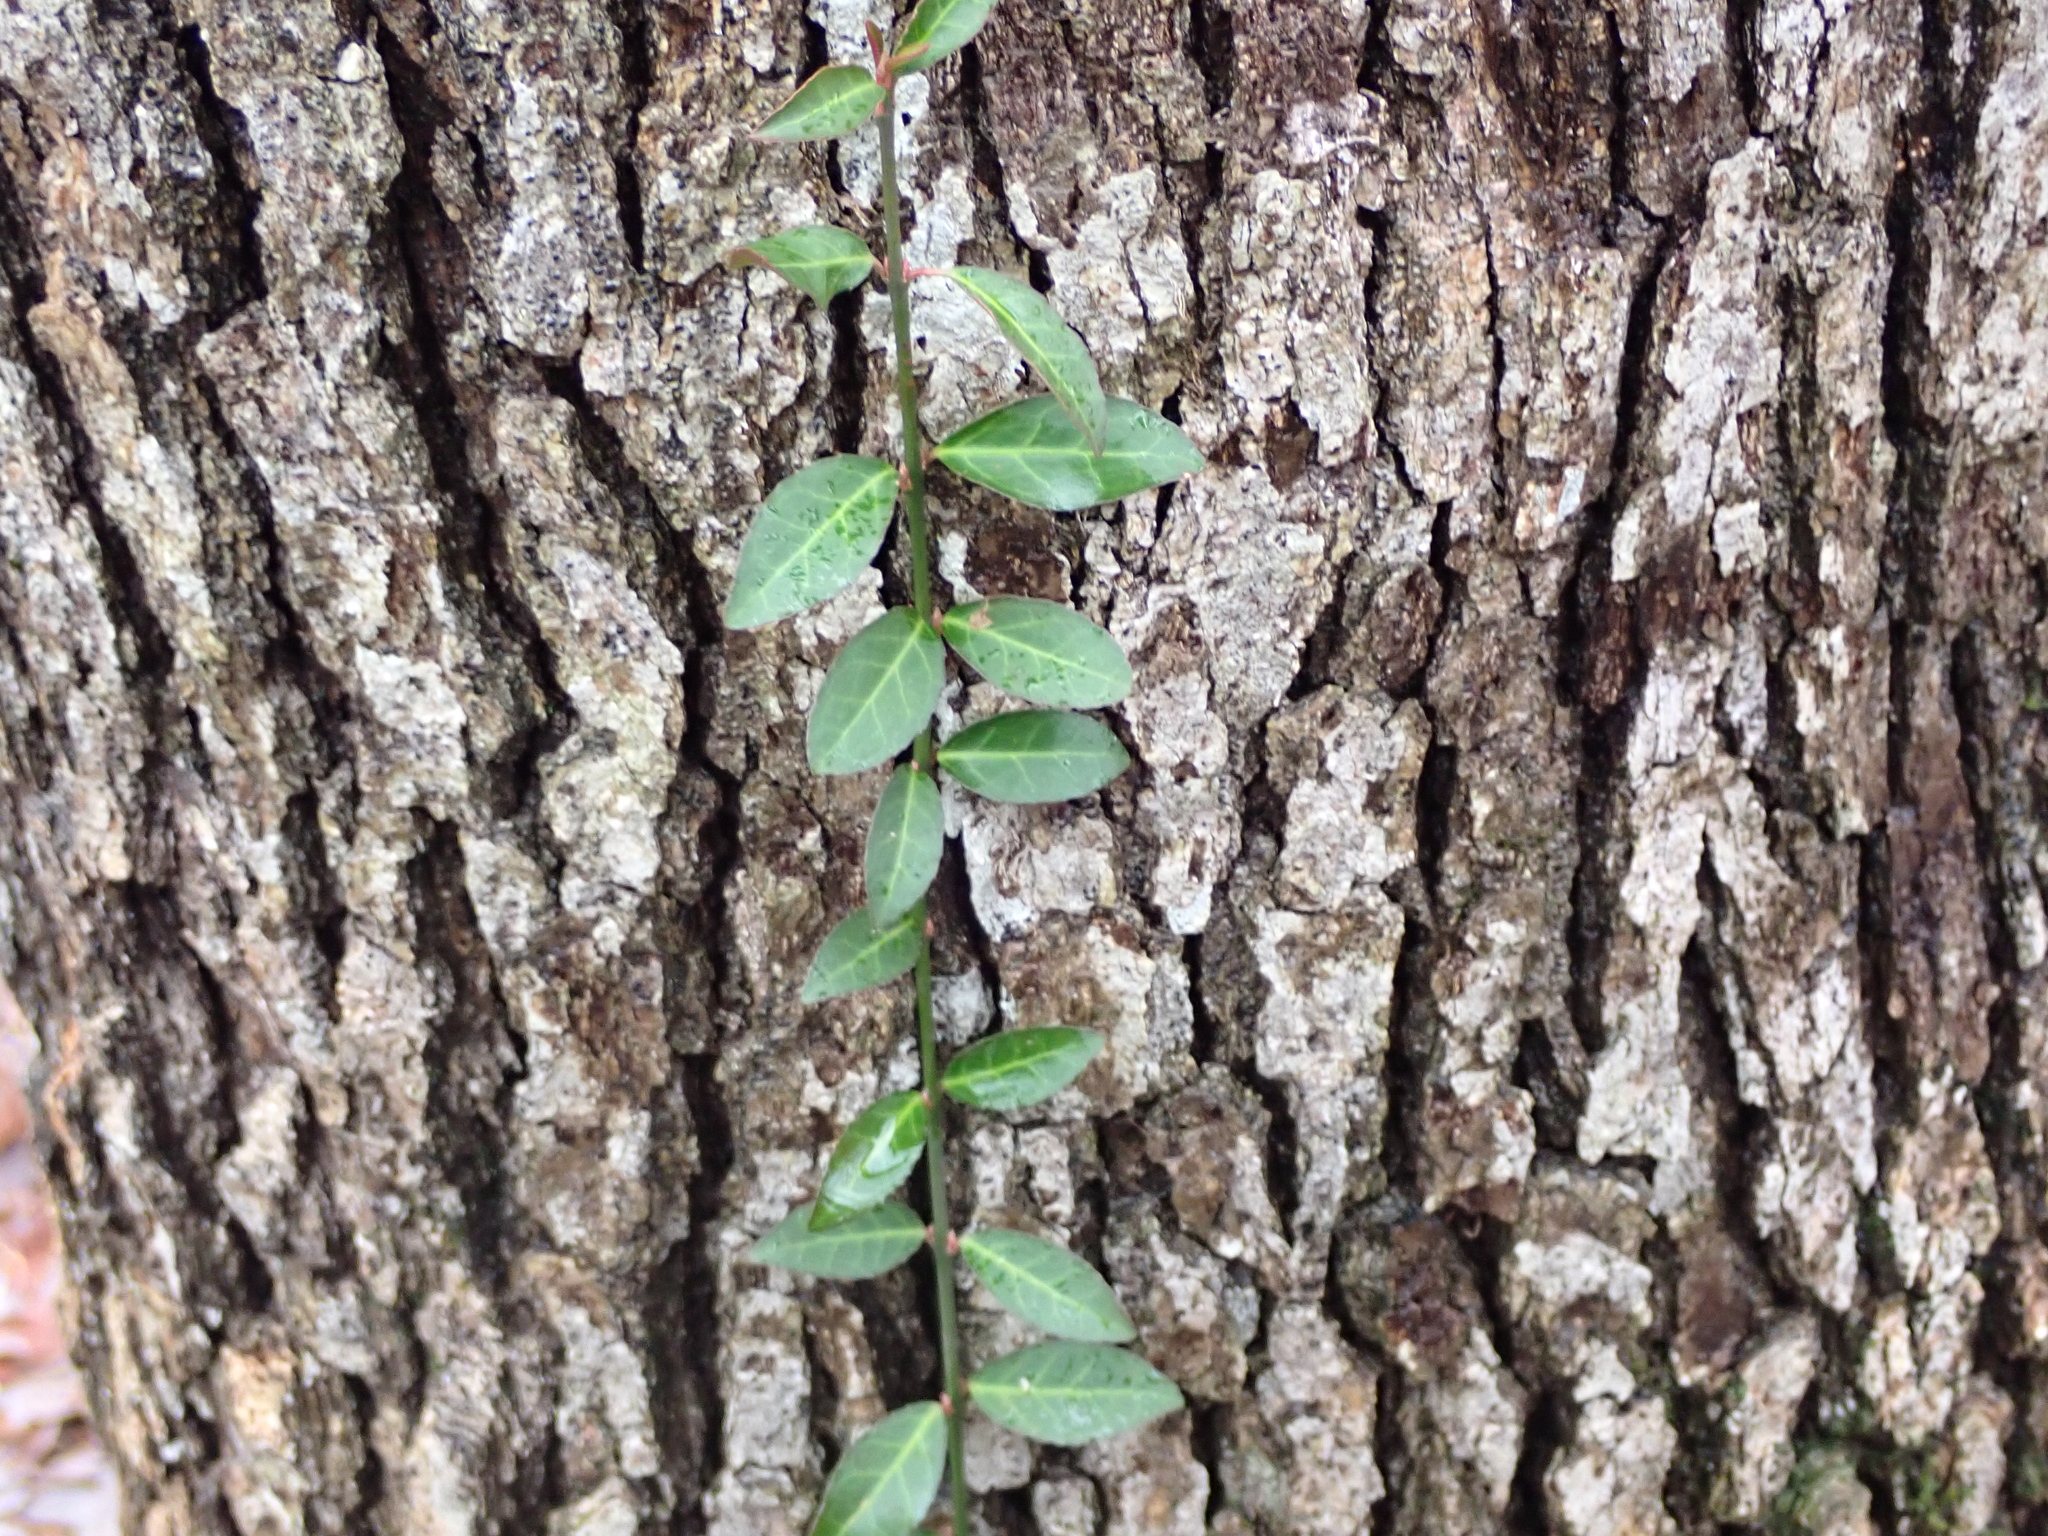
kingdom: Plantae
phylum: Tracheophyta
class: Magnoliopsida
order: Celastrales
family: Celastraceae
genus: Euonymus
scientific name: Euonymus fortunei
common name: Climbing euonymus
